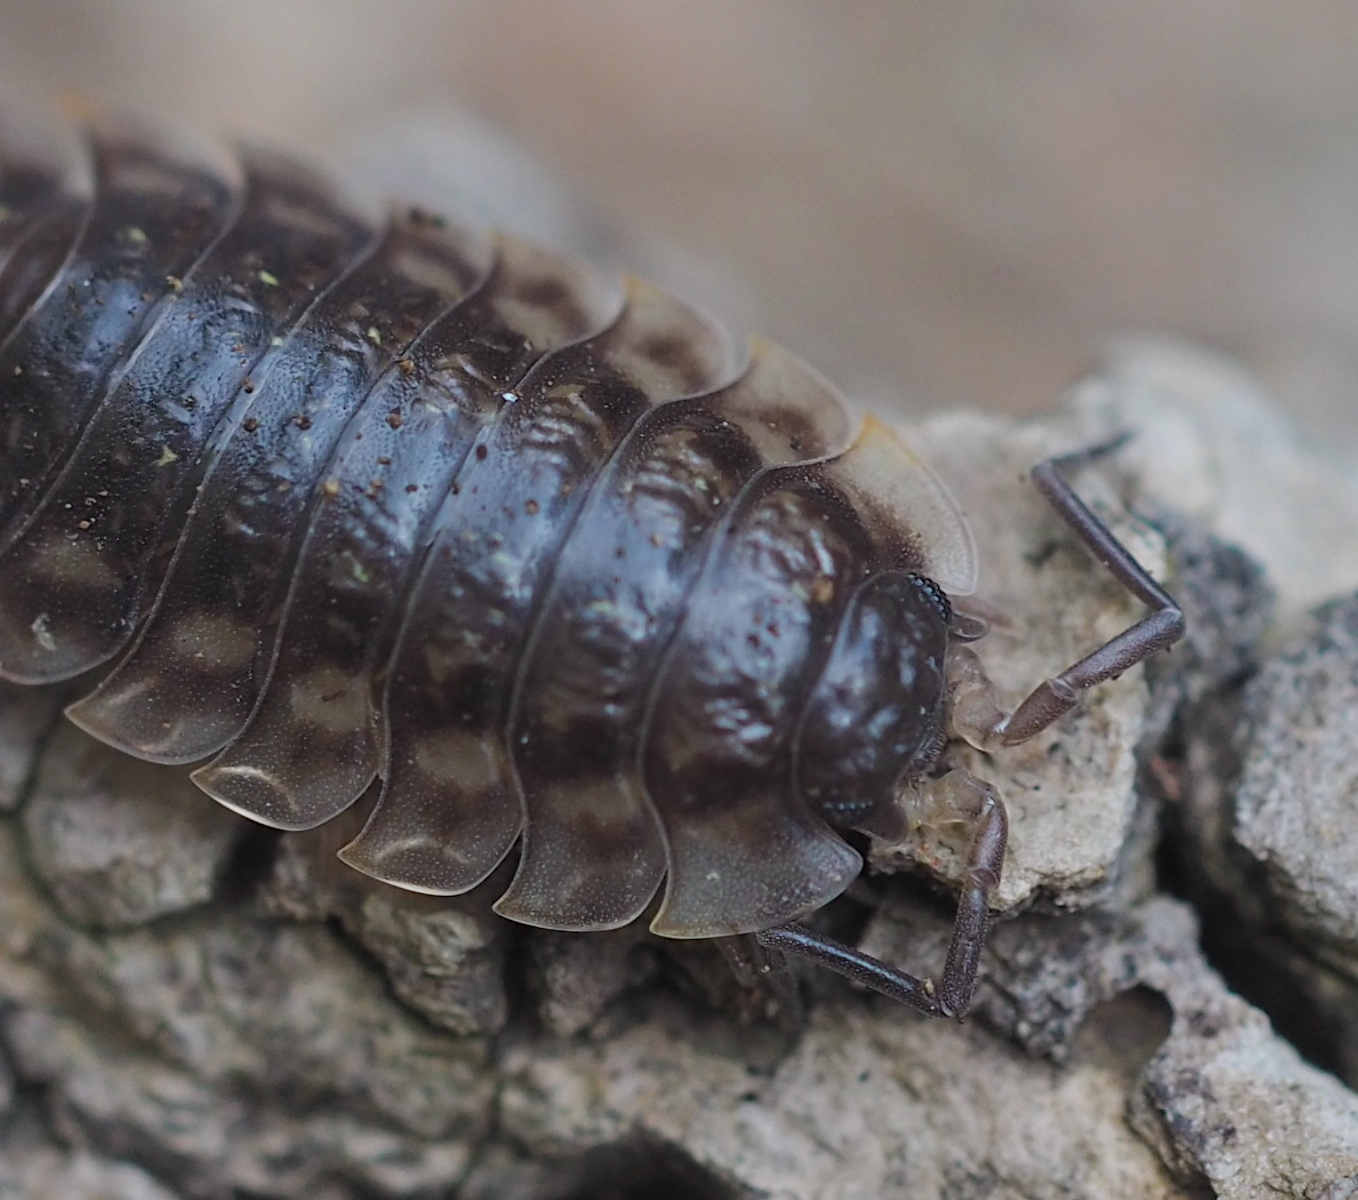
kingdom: Animalia
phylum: Arthropoda
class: Malacostraca
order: Isopoda
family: Oniscidae
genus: Oniscus
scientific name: Oniscus asellus
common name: Common shiny woodlouse
